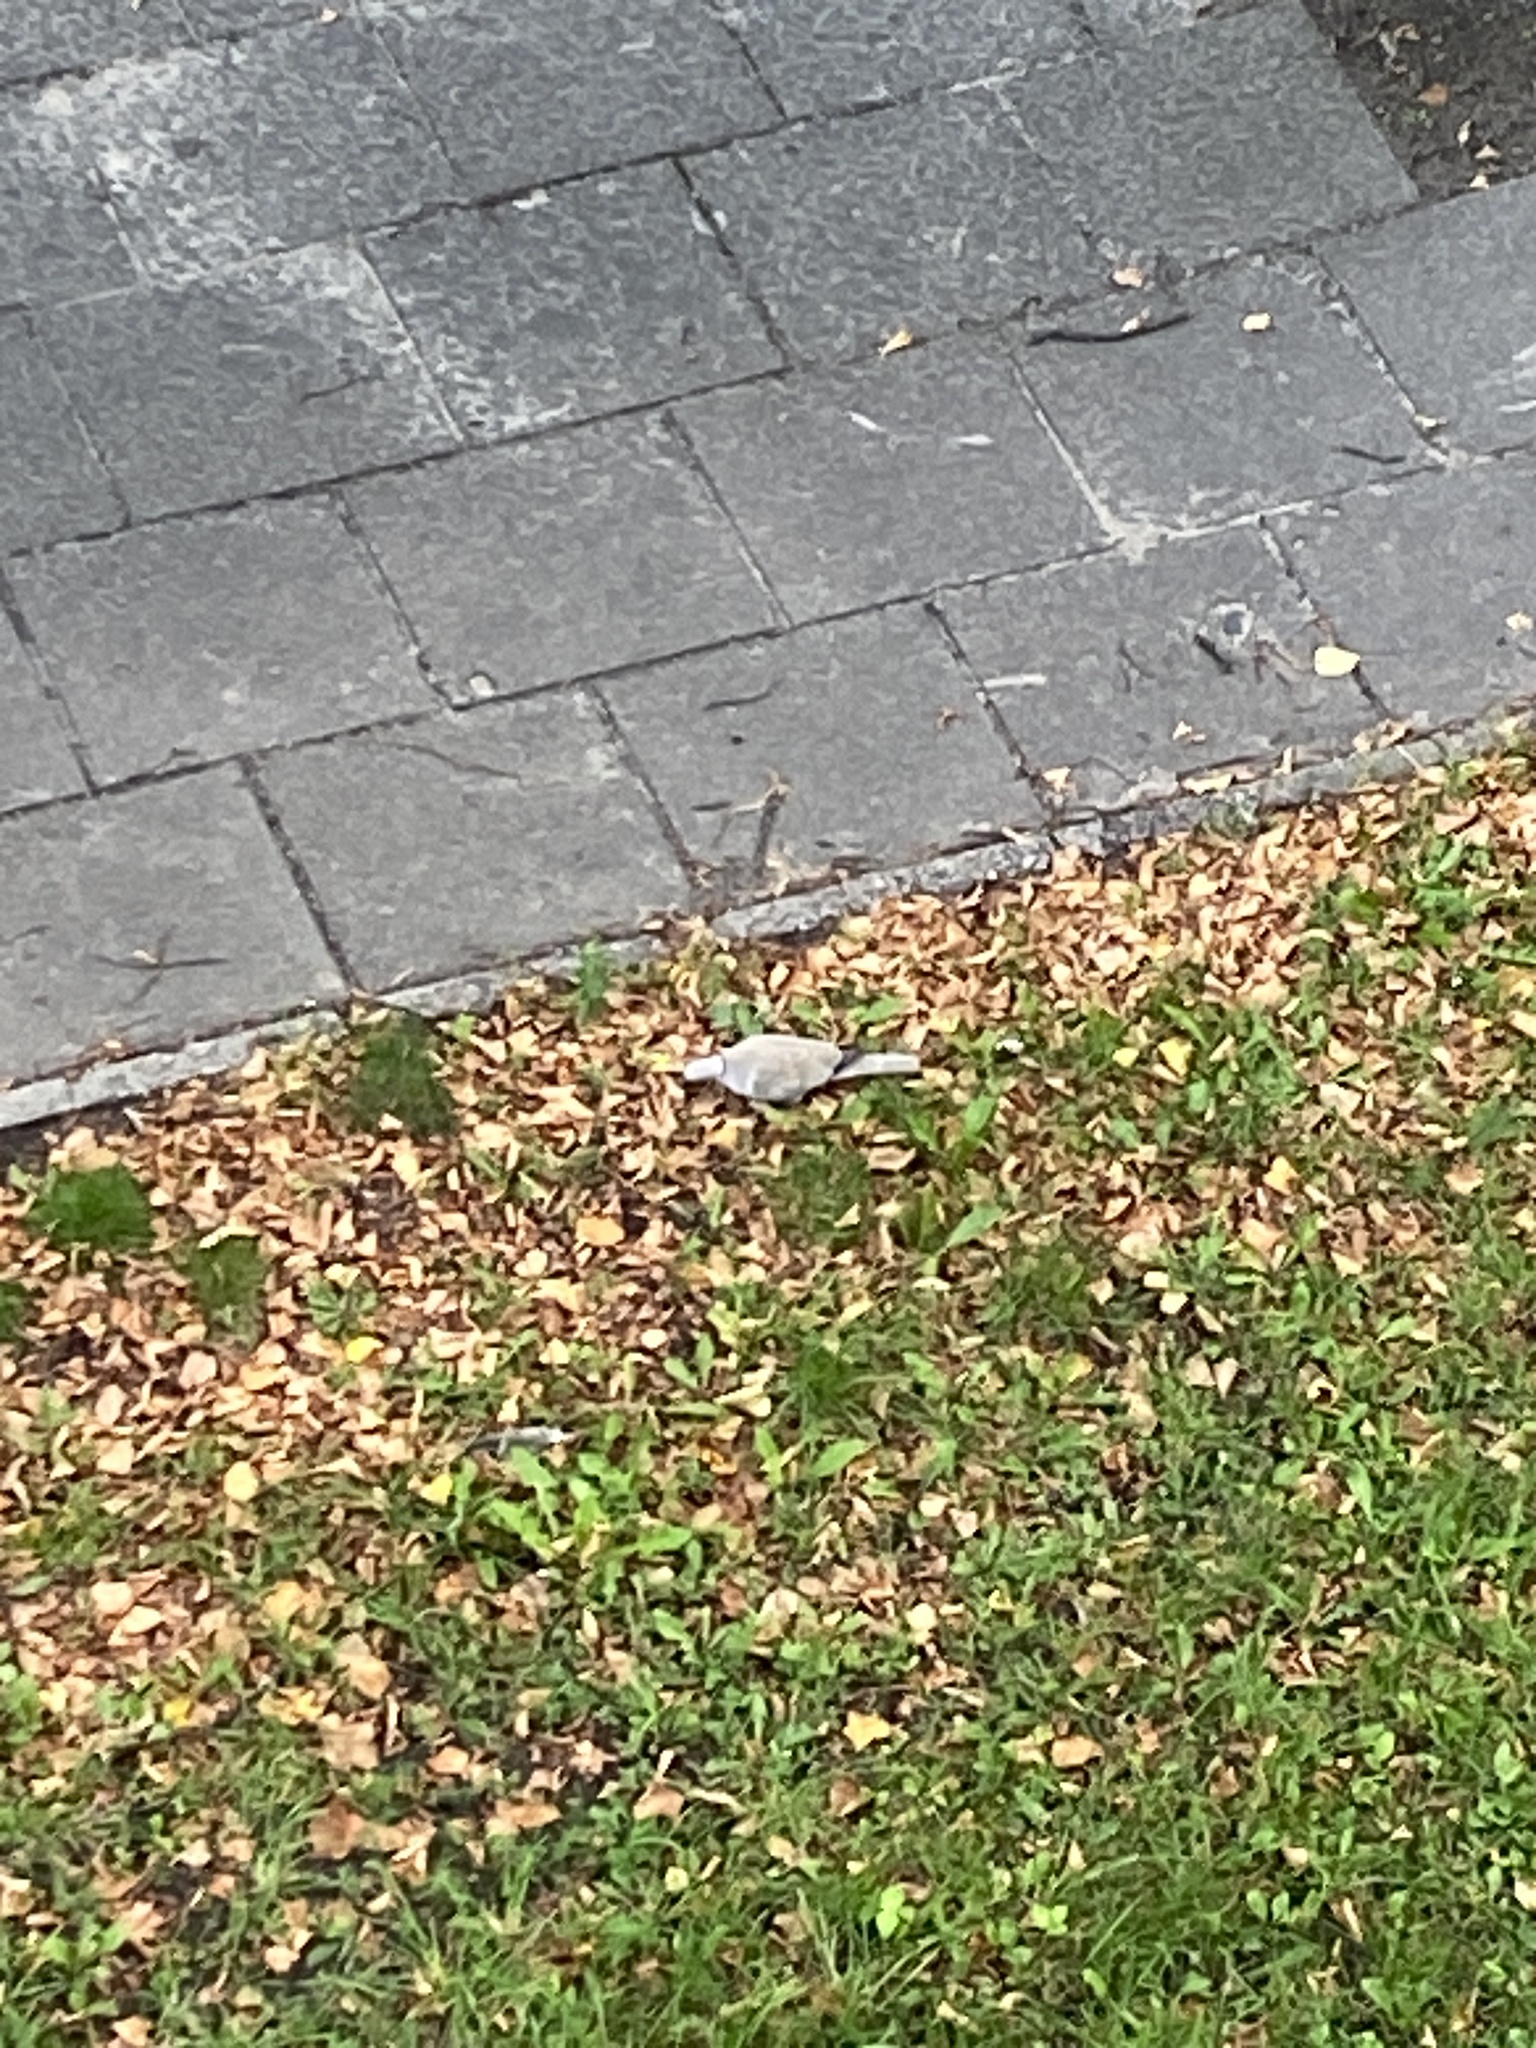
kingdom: Animalia
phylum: Chordata
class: Aves
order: Columbiformes
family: Columbidae
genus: Streptopelia
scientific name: Streptopelia decaocto
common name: Eurasian collared dove
